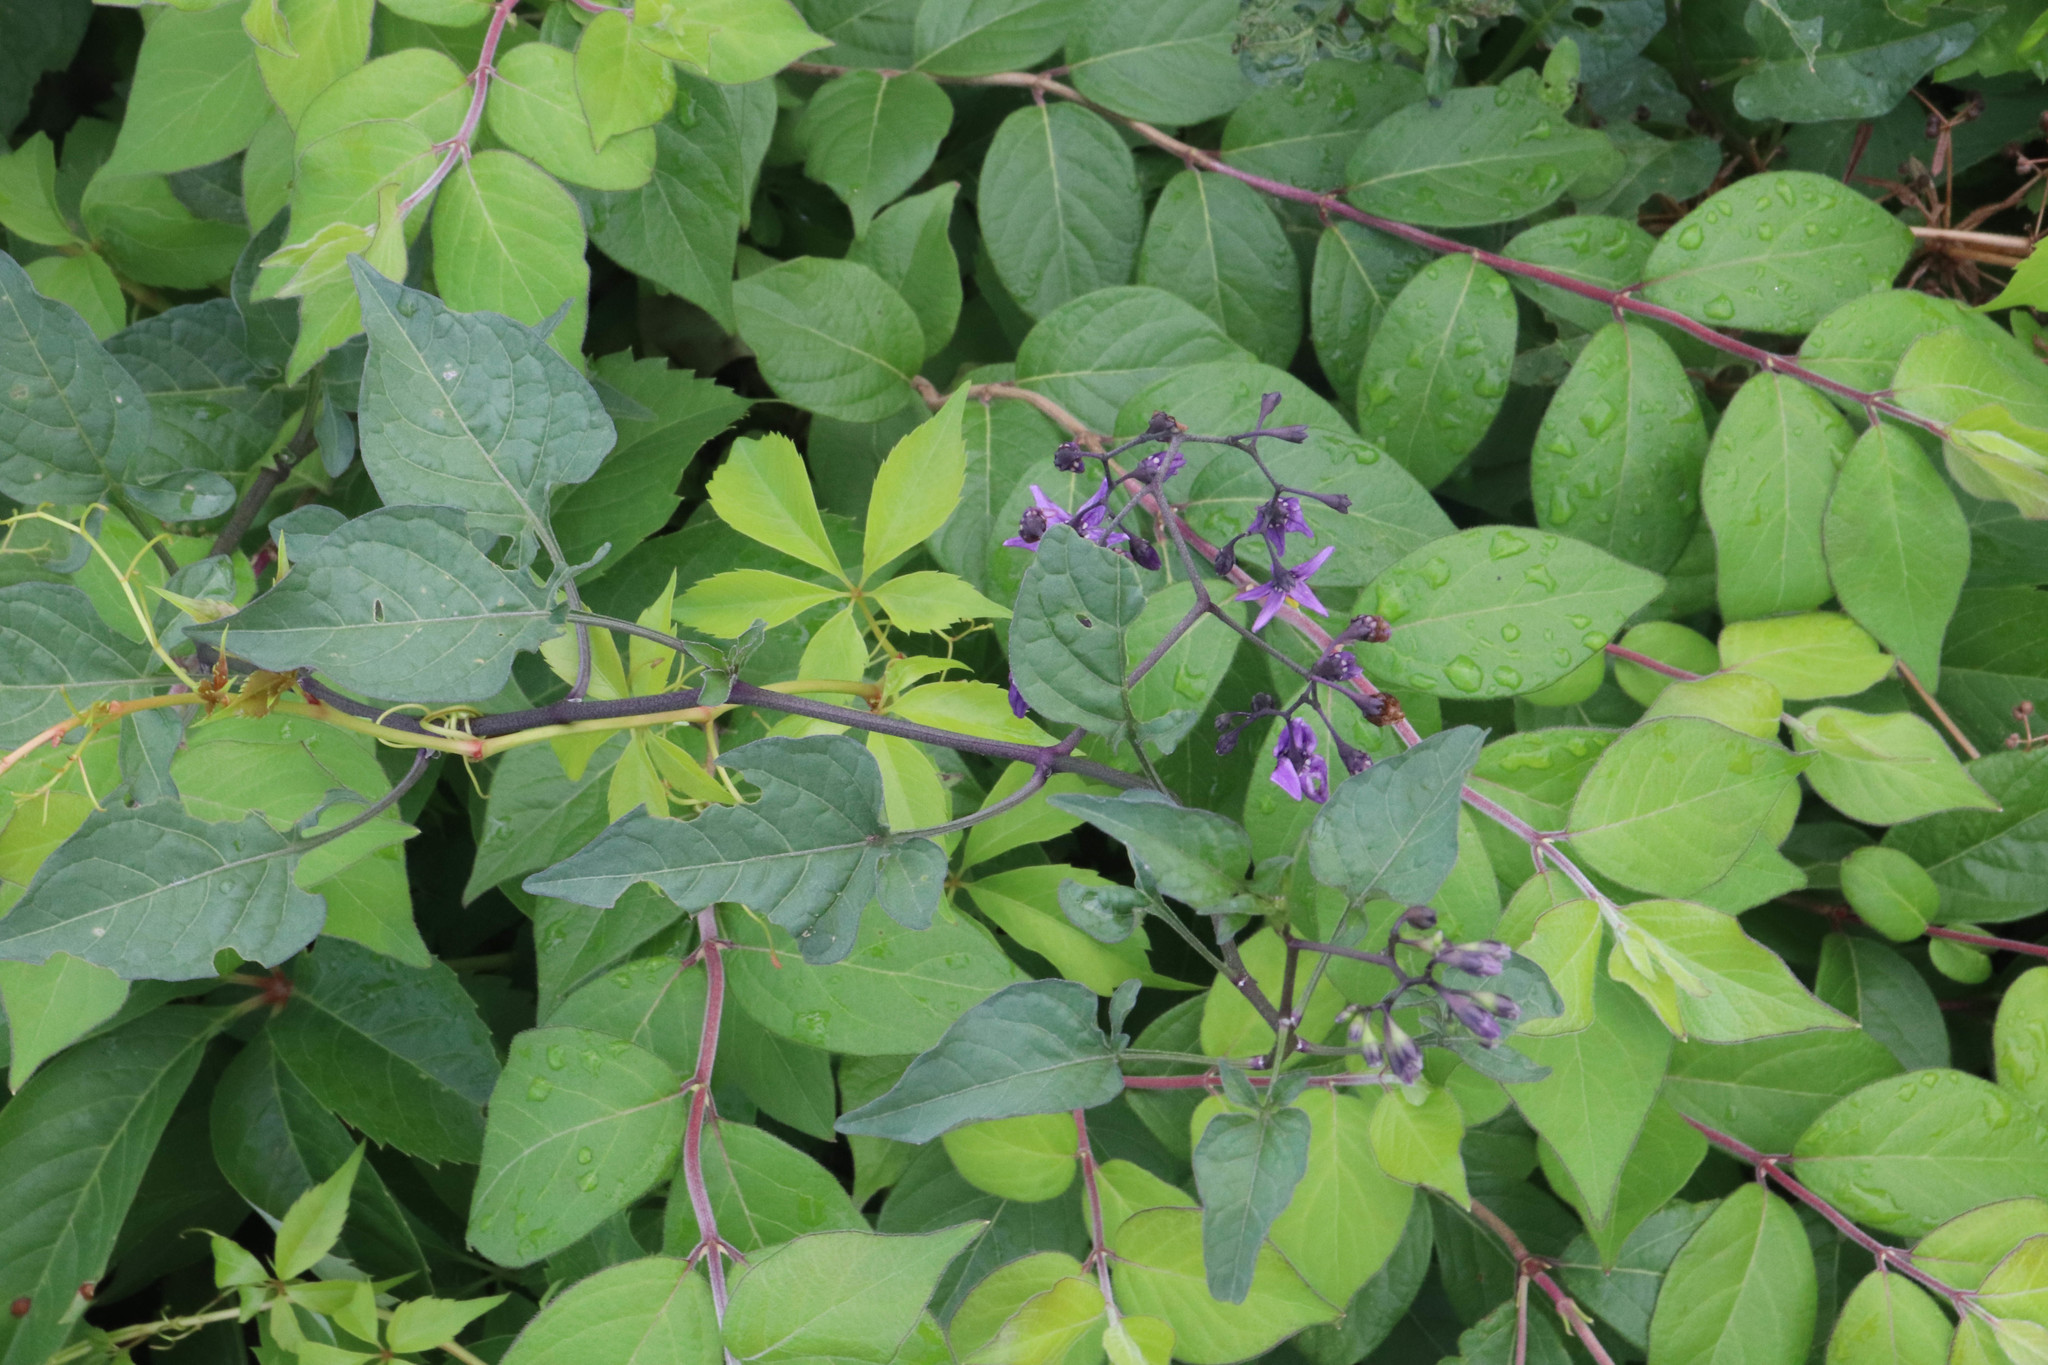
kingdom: Plantae
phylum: Tracheophyta
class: Magnoliopsida
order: Solanales
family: Solanaceae
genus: Solanum
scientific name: Solanum dulcamara
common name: Climbing nightshade
